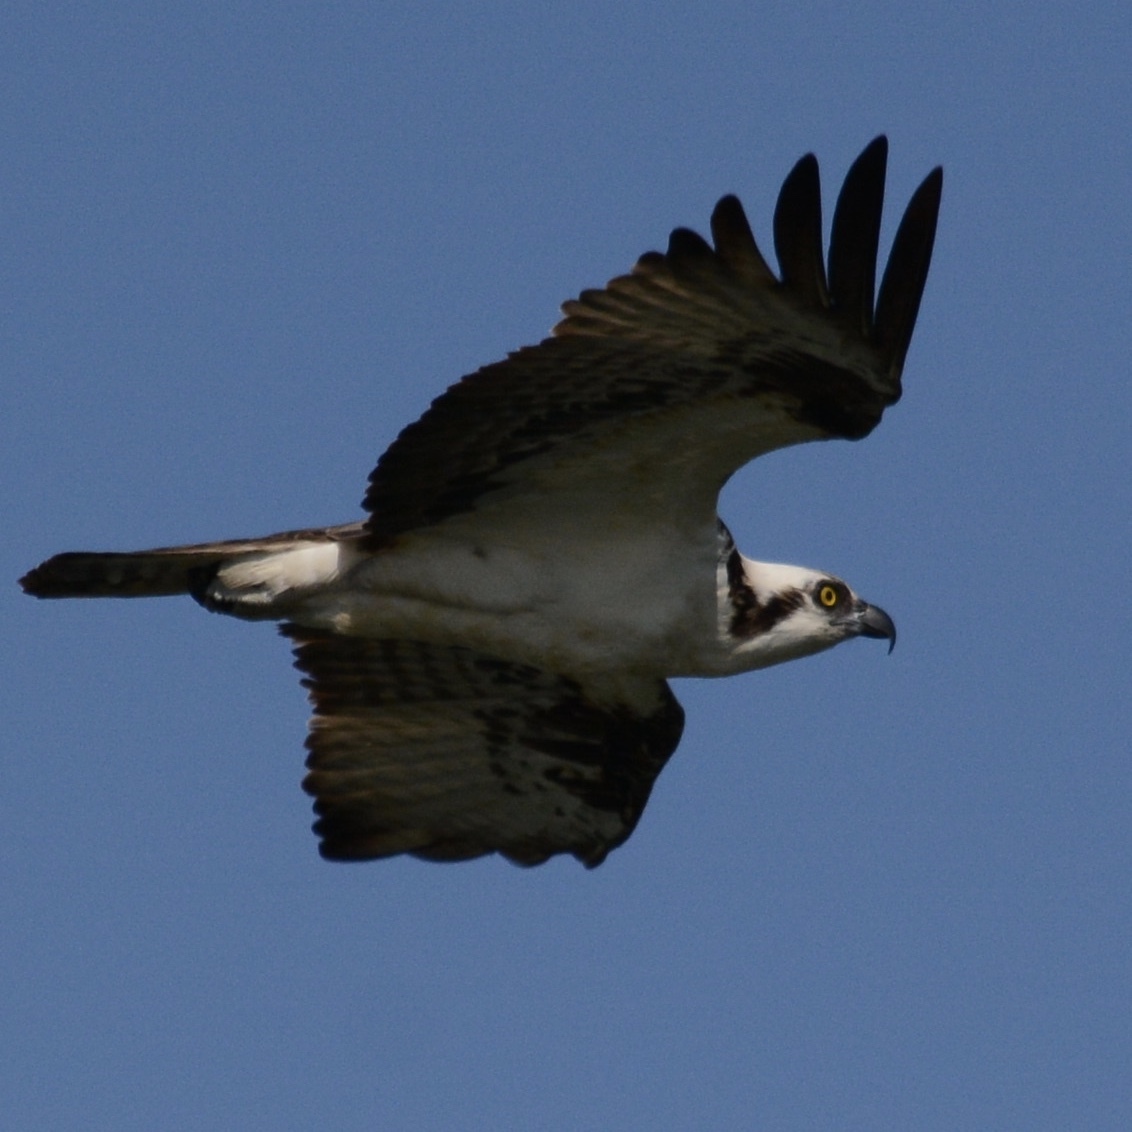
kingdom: Animalia
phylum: Chordata
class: Aves
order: Accipitriformes
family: Pandionidae
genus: Pandion
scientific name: Pandion haliaetus
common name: Osprey
